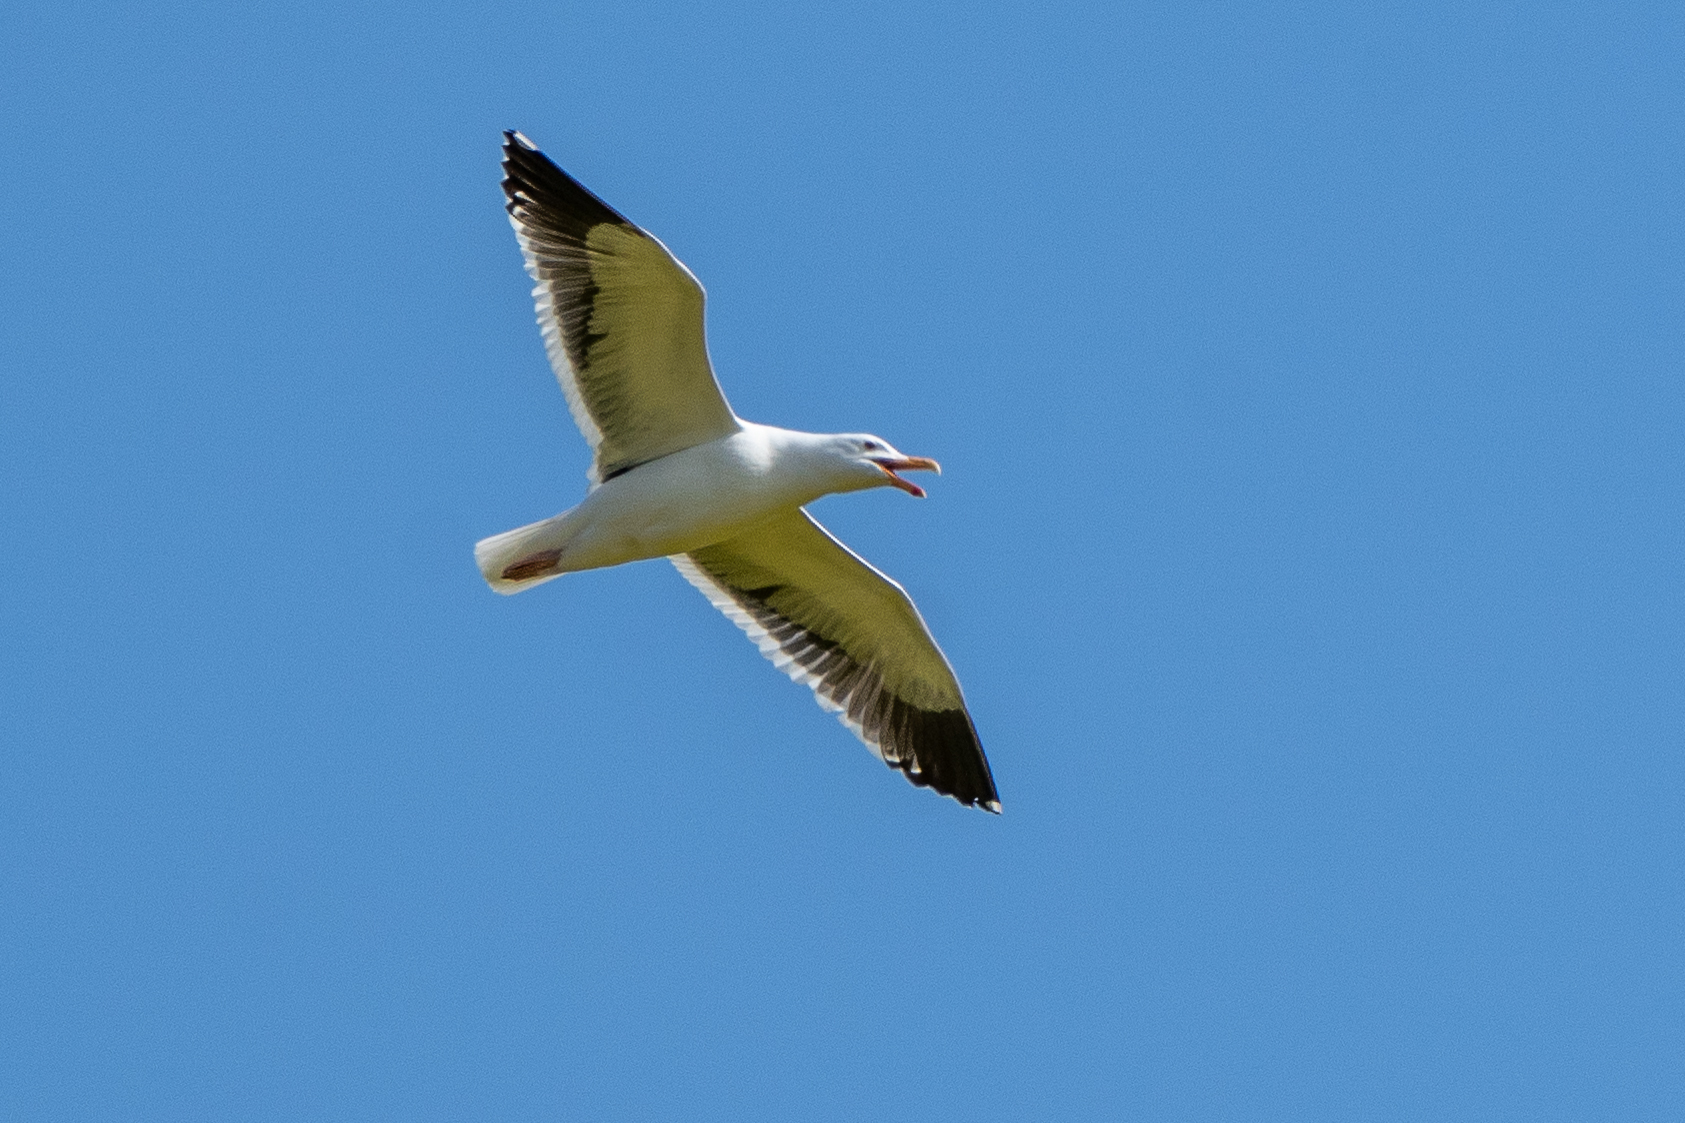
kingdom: Animalia
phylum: Chordata
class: Aves
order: Charadriiformes
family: Laridae
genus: Larus
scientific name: Larus occidentalis
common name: Western gull
